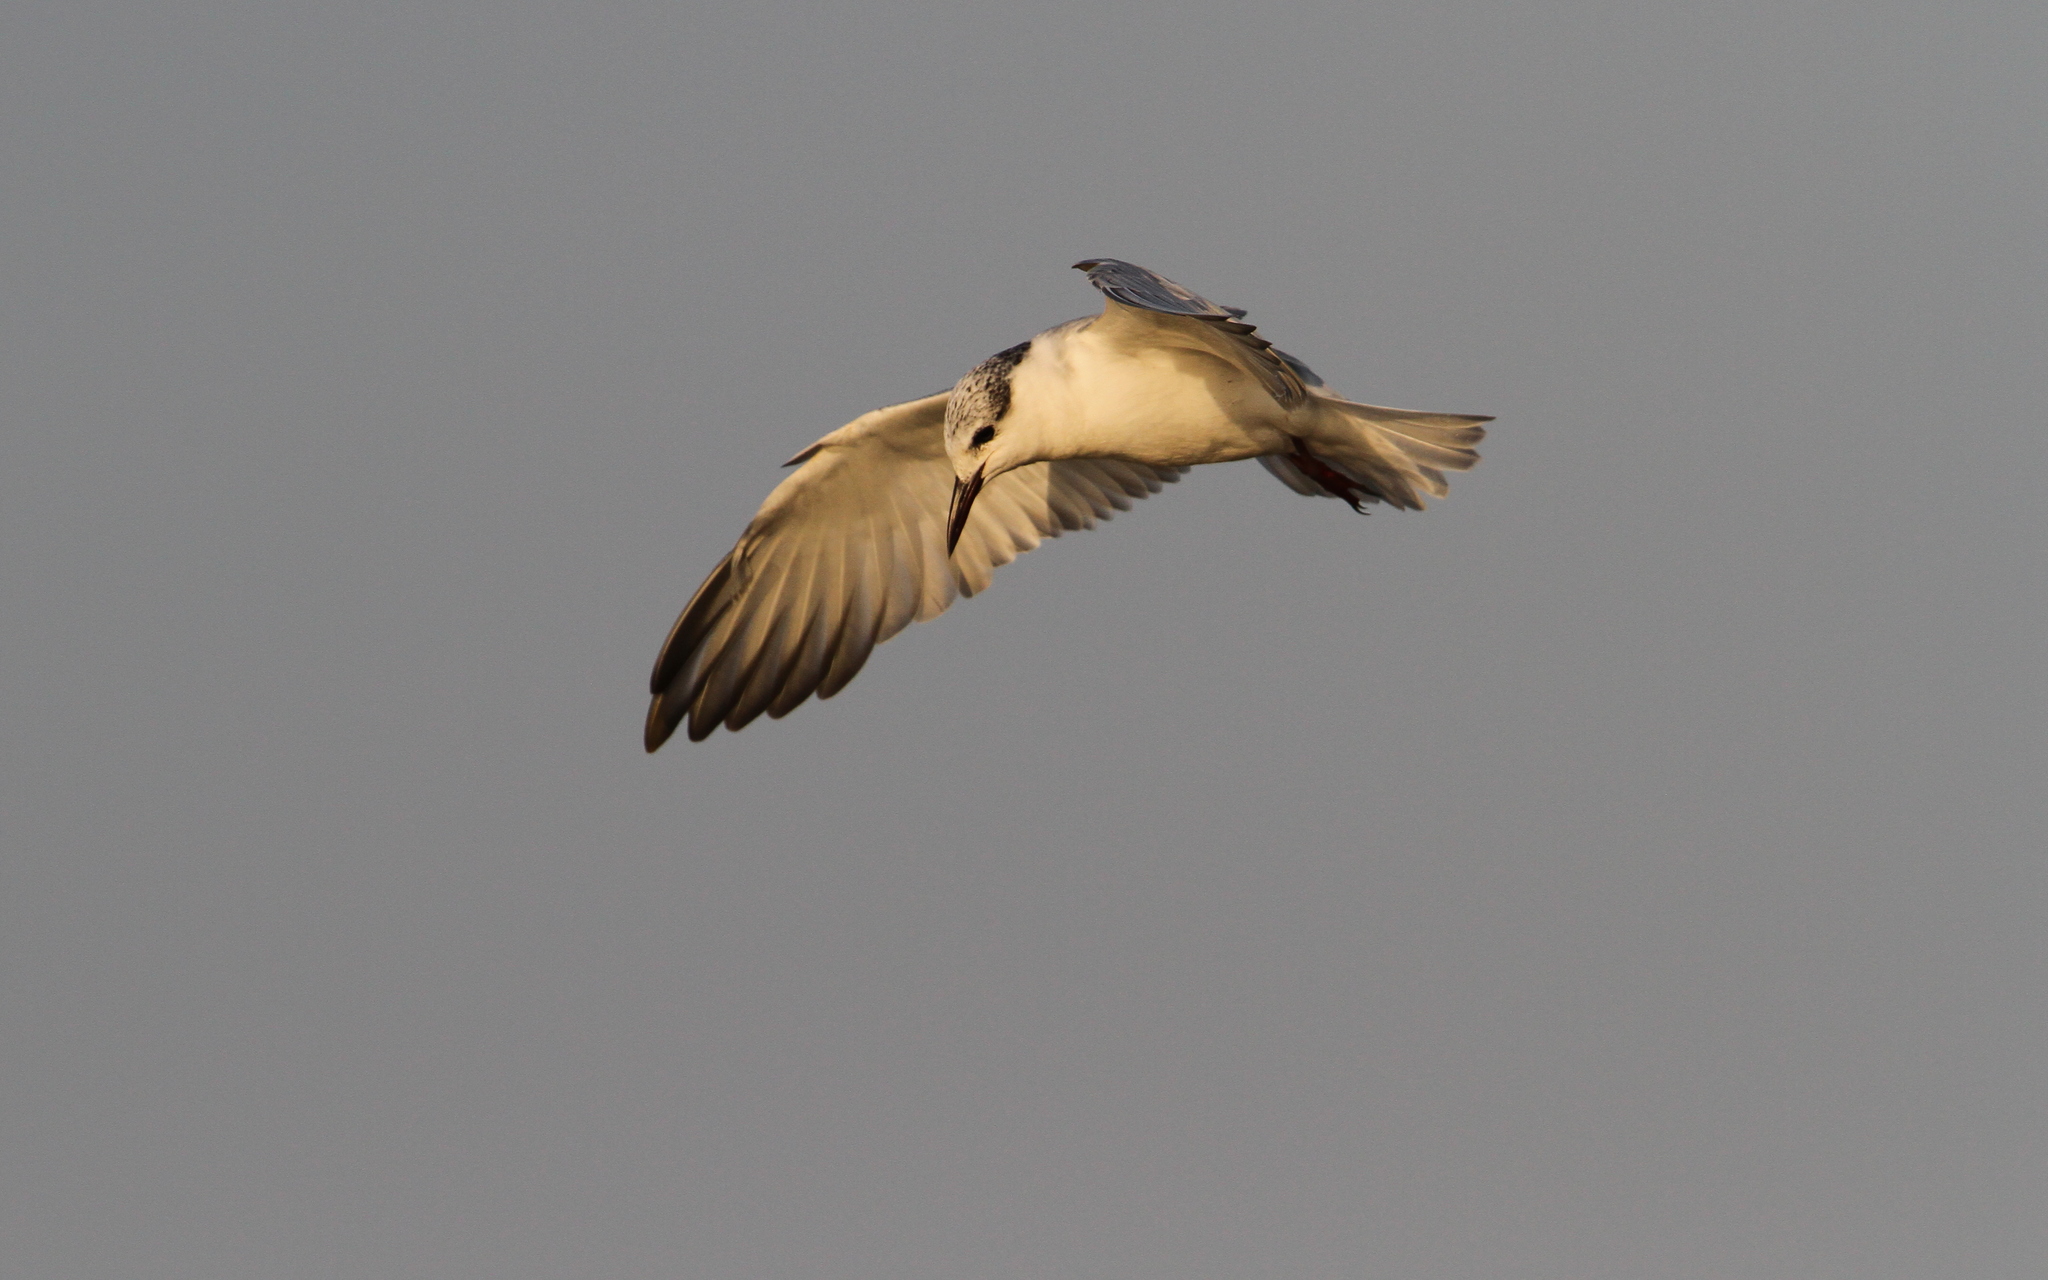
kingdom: Animalia
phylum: Chordata
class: Aves
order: Charadriiformes
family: Laridae
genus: Chlidonias
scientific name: Chlidonias hybrida
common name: Whiskered tern
